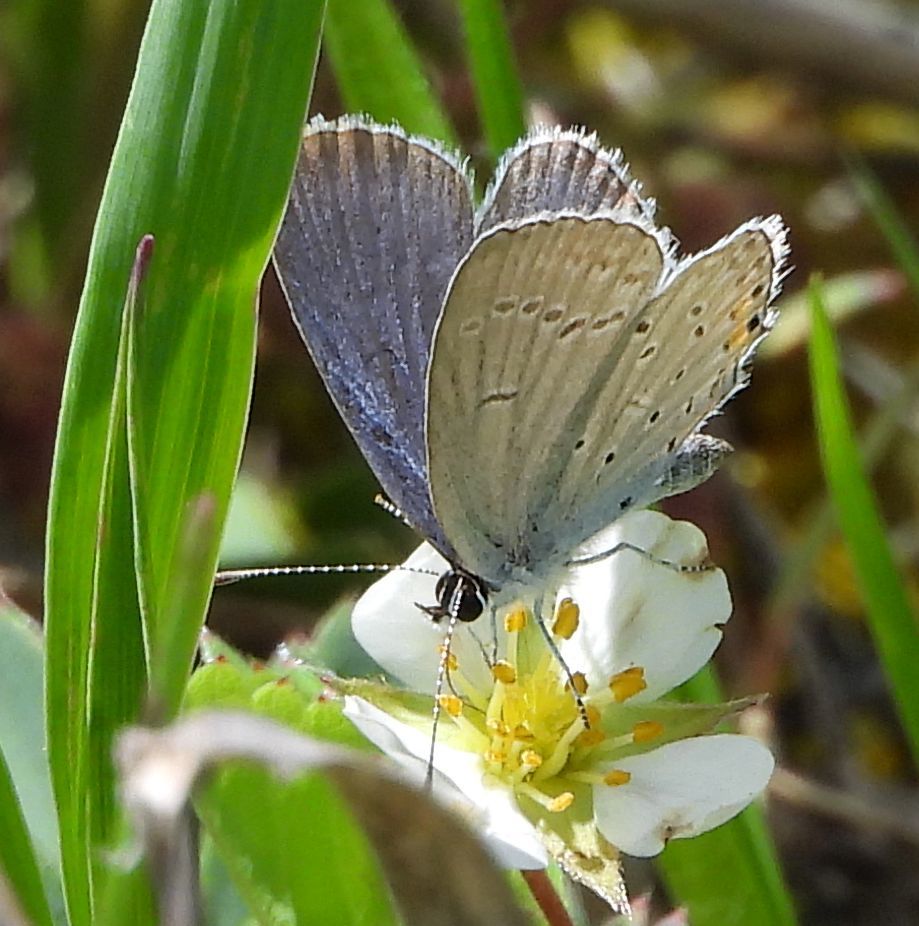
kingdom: Animalia
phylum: Arthropoda
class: Insecta
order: Lepidoptera
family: Lycaenidae
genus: Elkalyce
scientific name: Elkalyce comyntas
